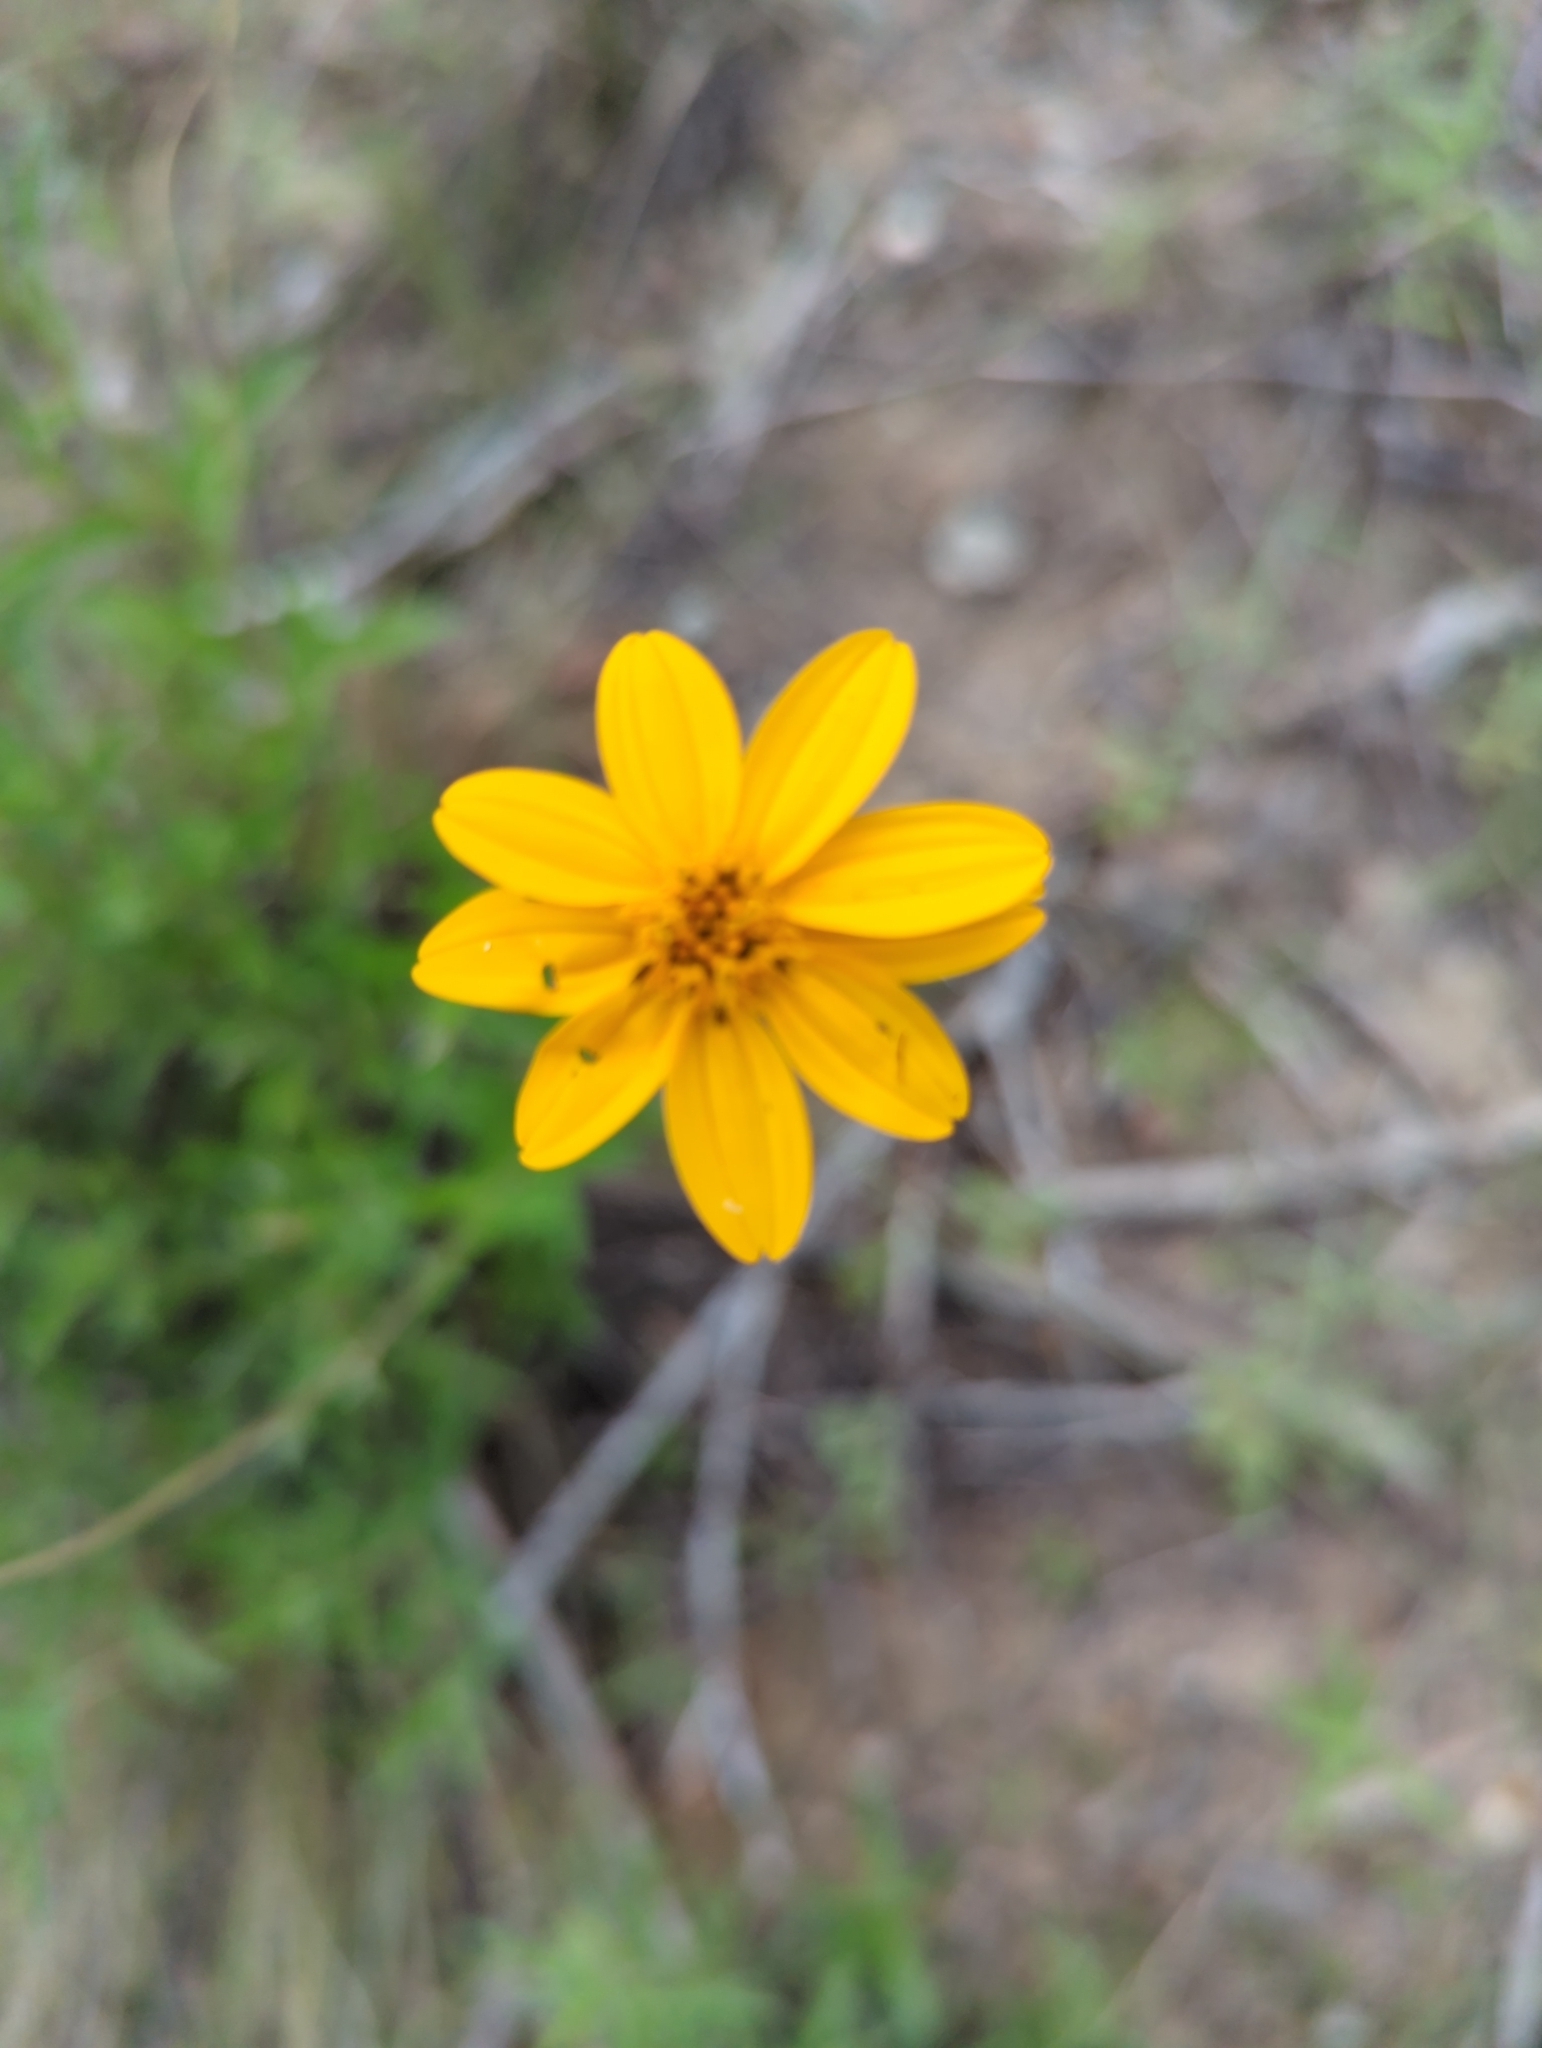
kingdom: Plantae
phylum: Tracheophyta
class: Magnoliopsida
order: Asterales
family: Asteraceae
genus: Wedelia
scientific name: Wedelia acapulcensis
